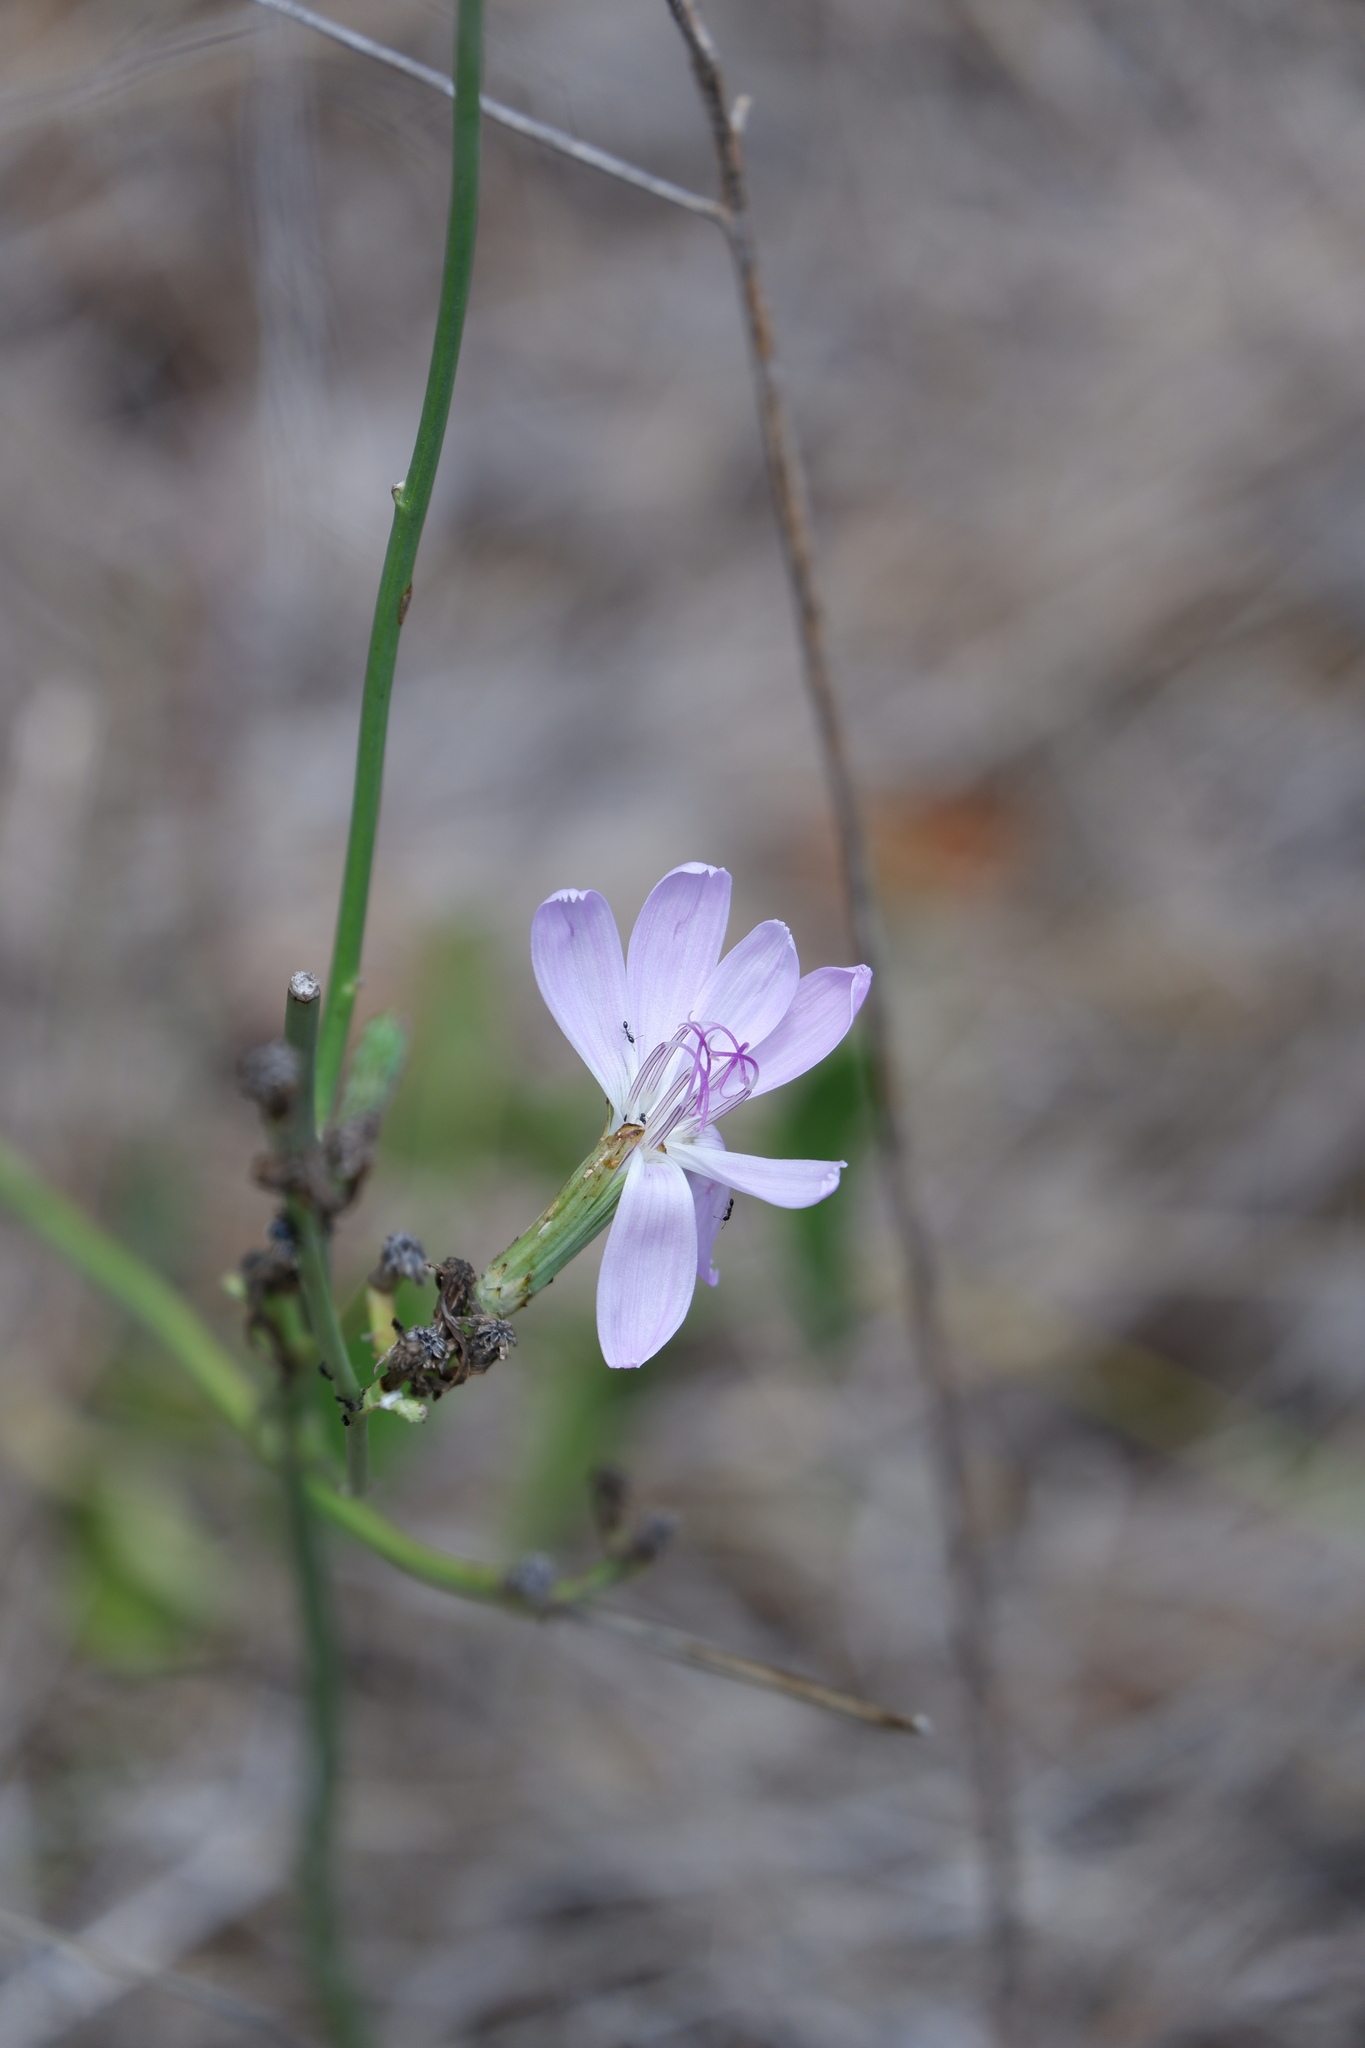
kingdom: Plantae
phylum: Tracheophyta
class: Magnoliopsida
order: Asterales
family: Asteraceae
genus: Lygodesmia
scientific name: Lygodesmia texana
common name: Texas skeleton-plant
